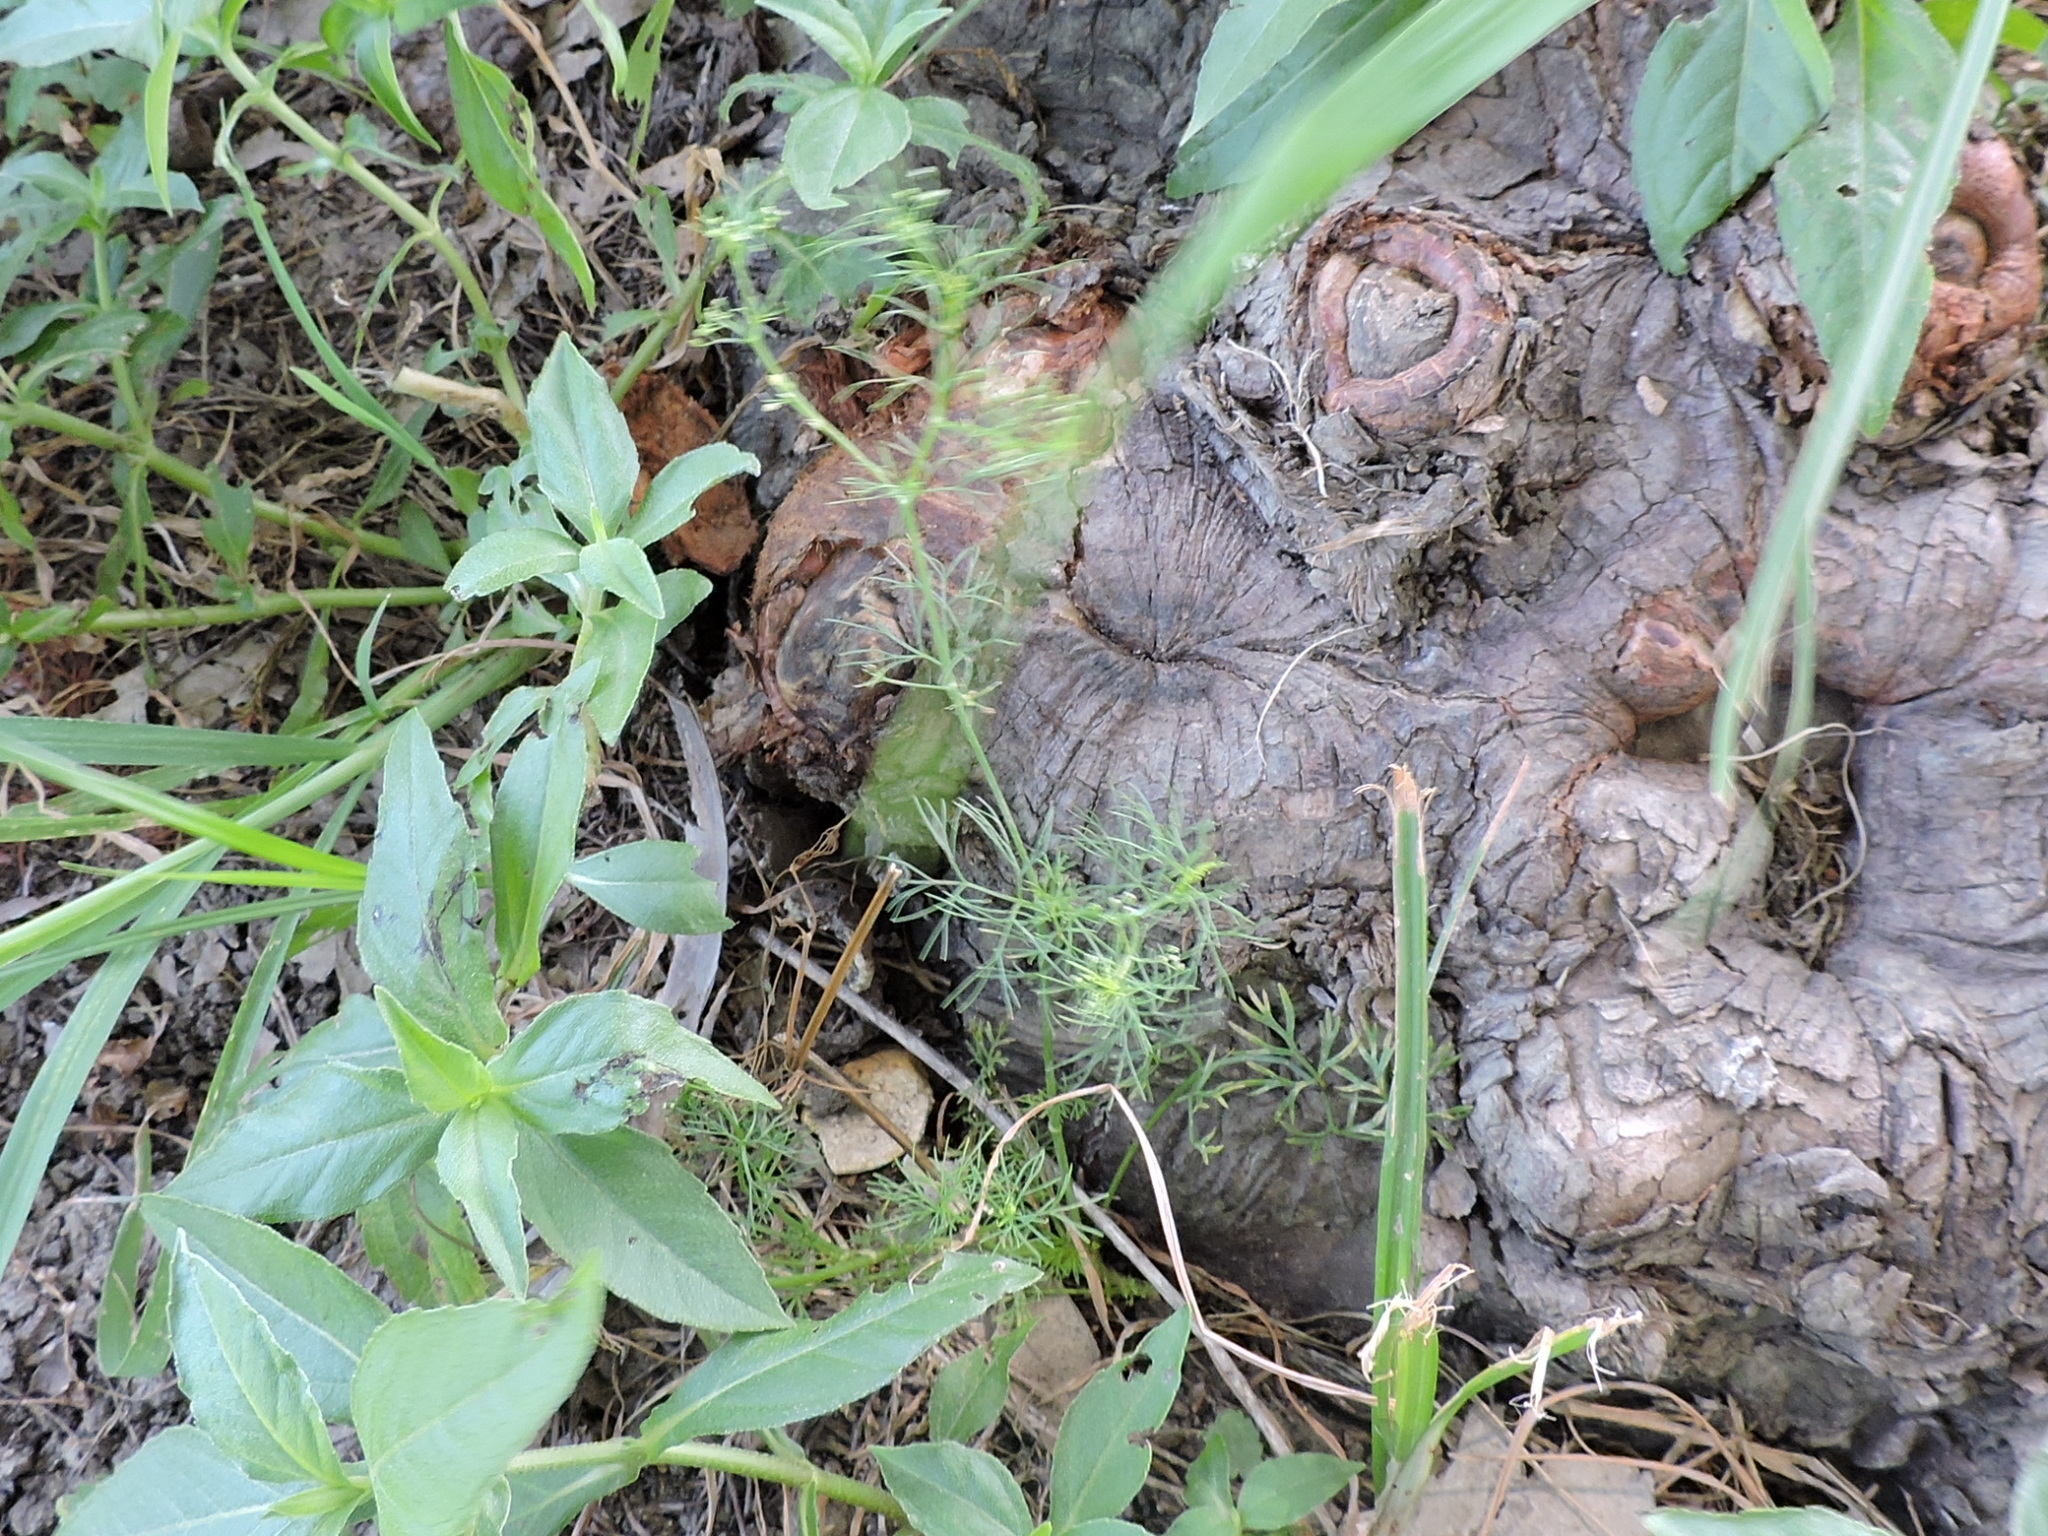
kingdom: Plantae
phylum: Tracheophyta
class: Magnoliopsida
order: Apiales
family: Apiaceae
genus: Cyclospermum
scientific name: Cyclospermum leptophyllum
